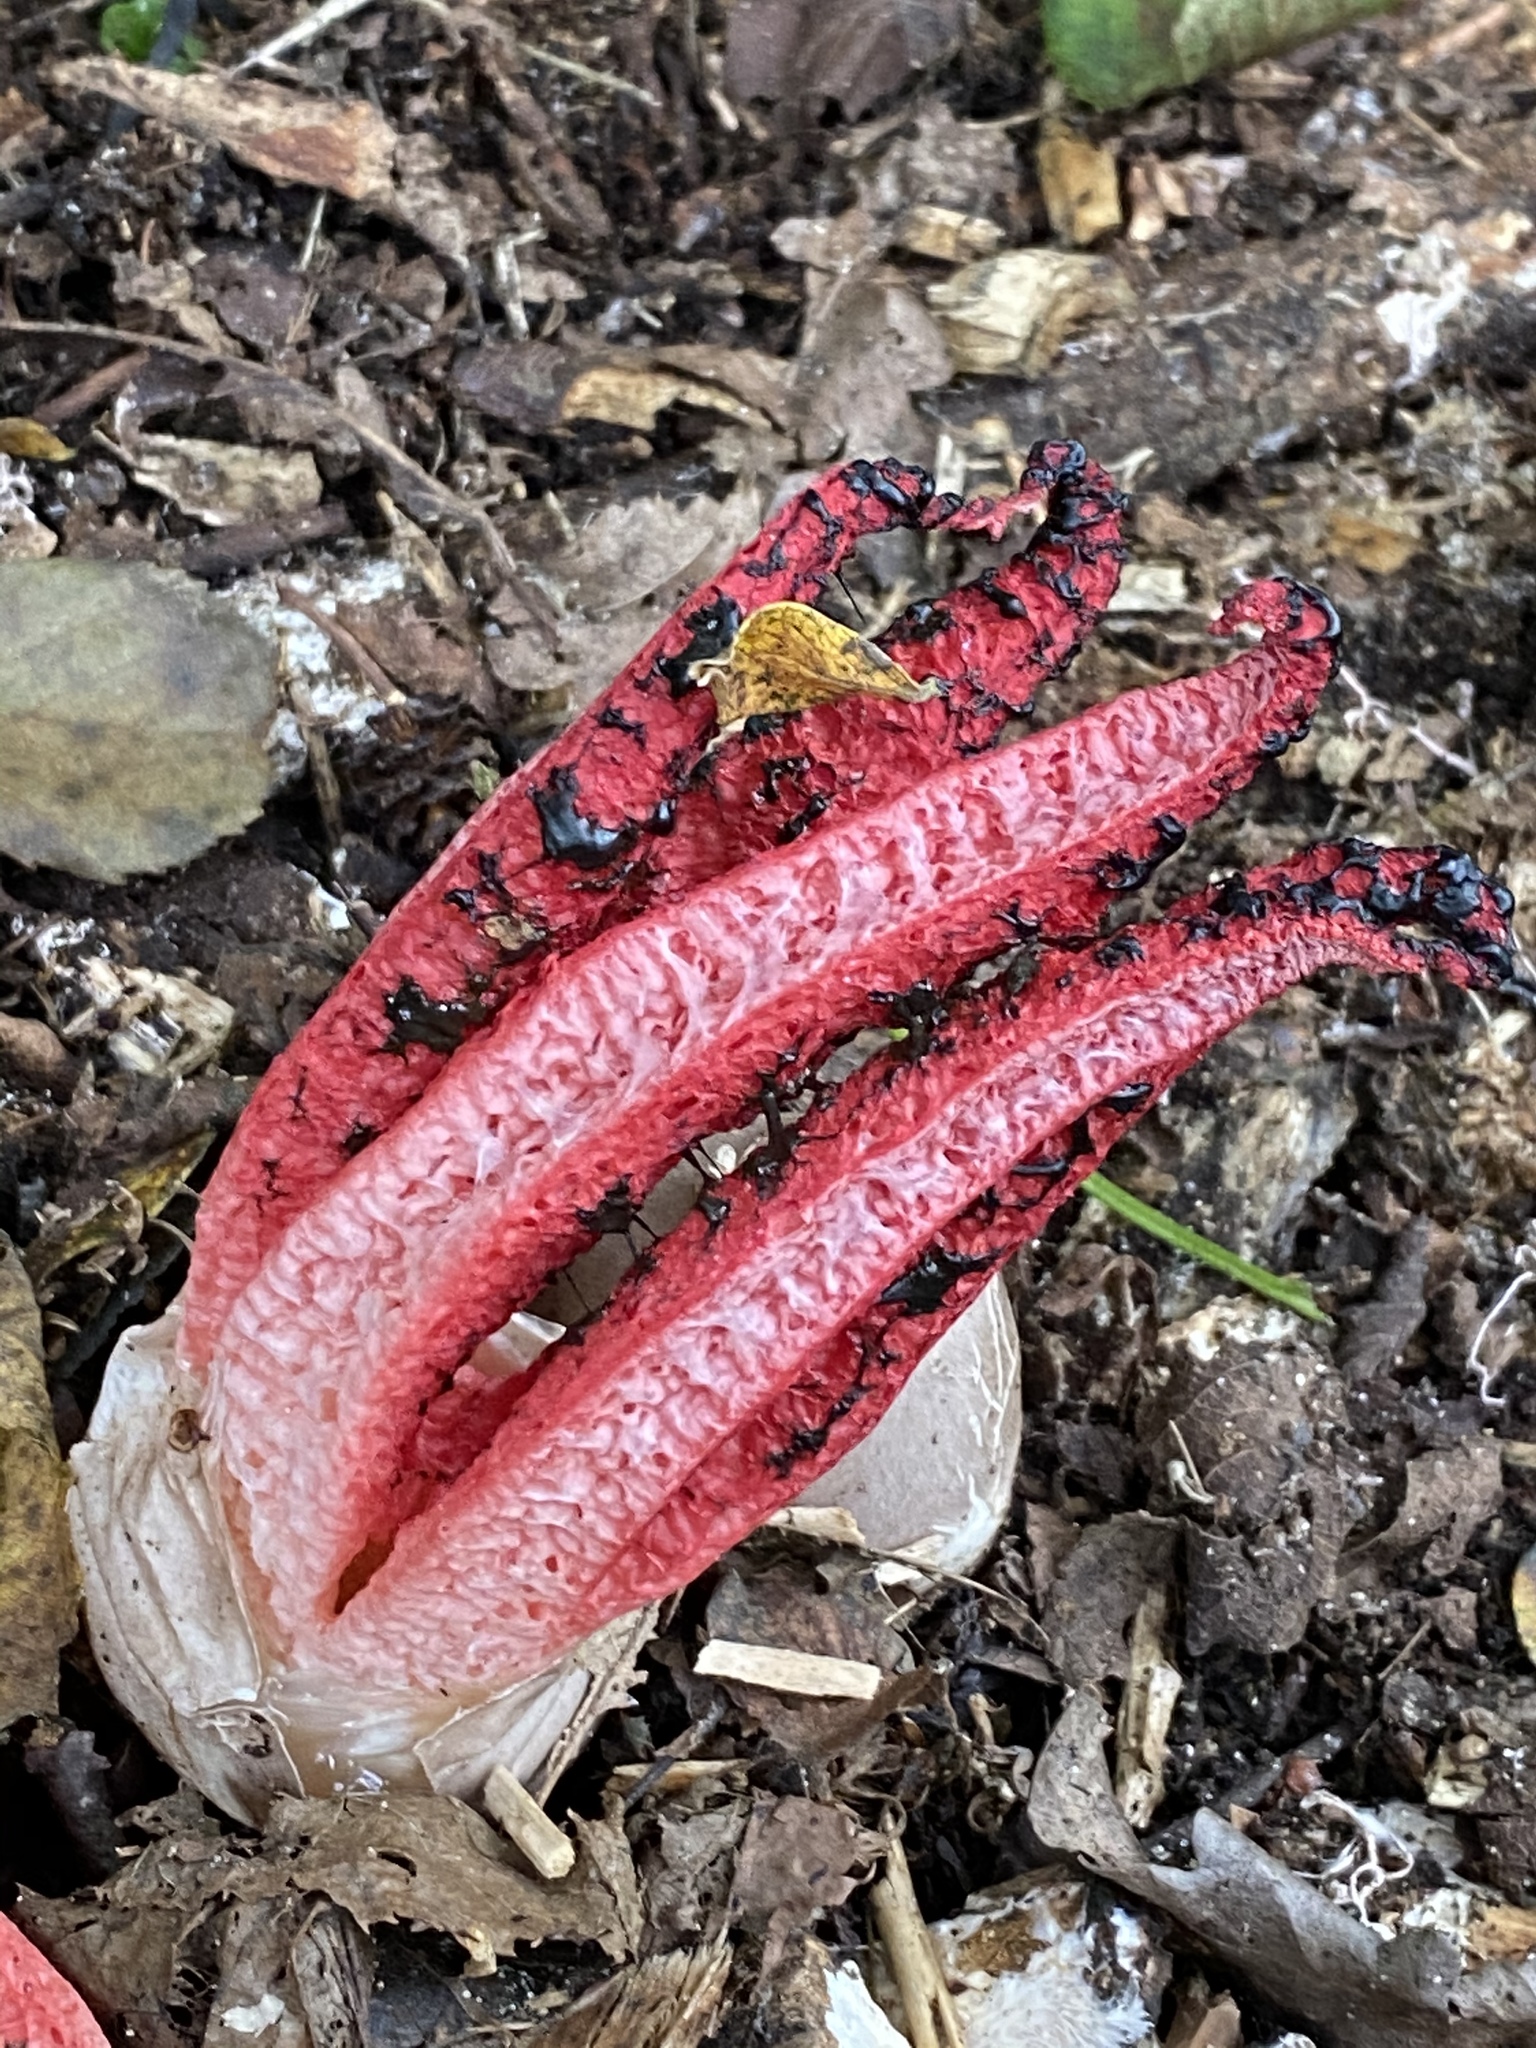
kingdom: Fungi
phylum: Basidiomycota
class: Agaricomycetes
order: Phallales
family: Phallaceae
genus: Clathrus
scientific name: Clathrus archeri
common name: Devil's fingers
